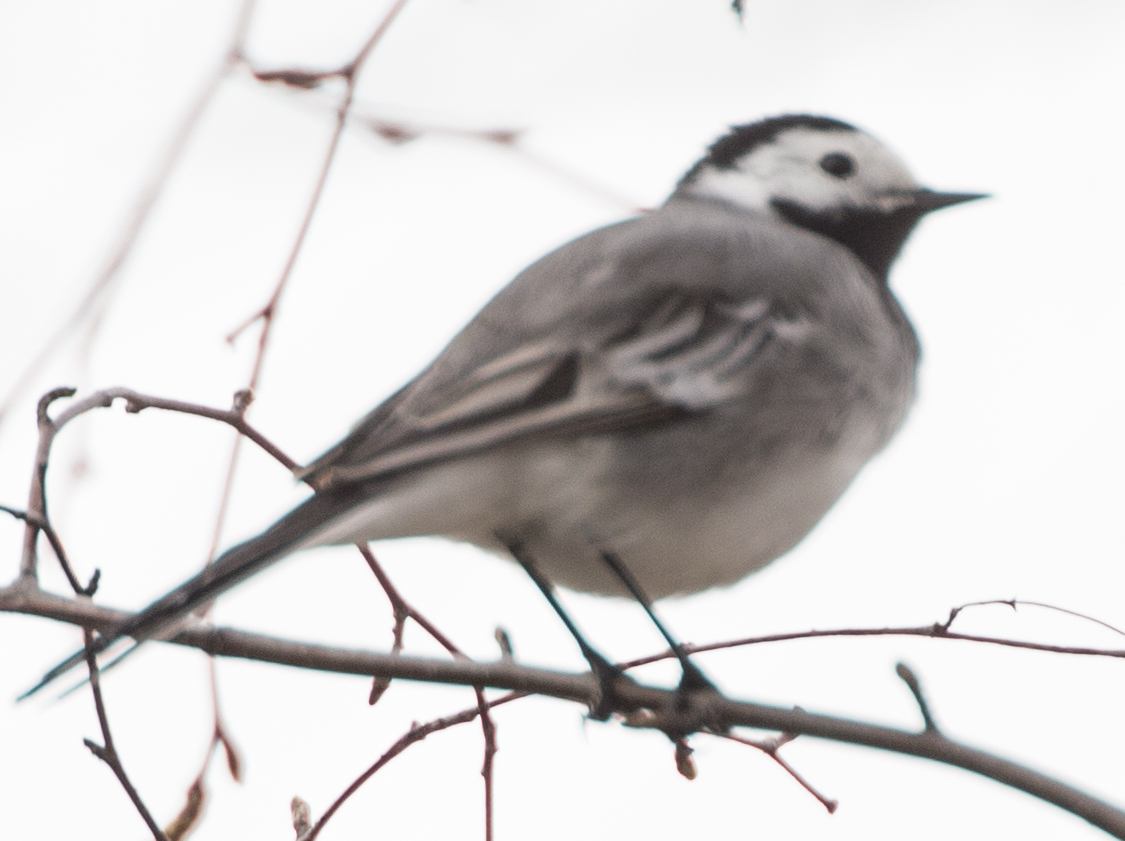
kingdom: Animalia
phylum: Chordata
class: Aves
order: Passeriformes
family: Motacillidae
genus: Motacilla
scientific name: Motacilla alba
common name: White wagtail
